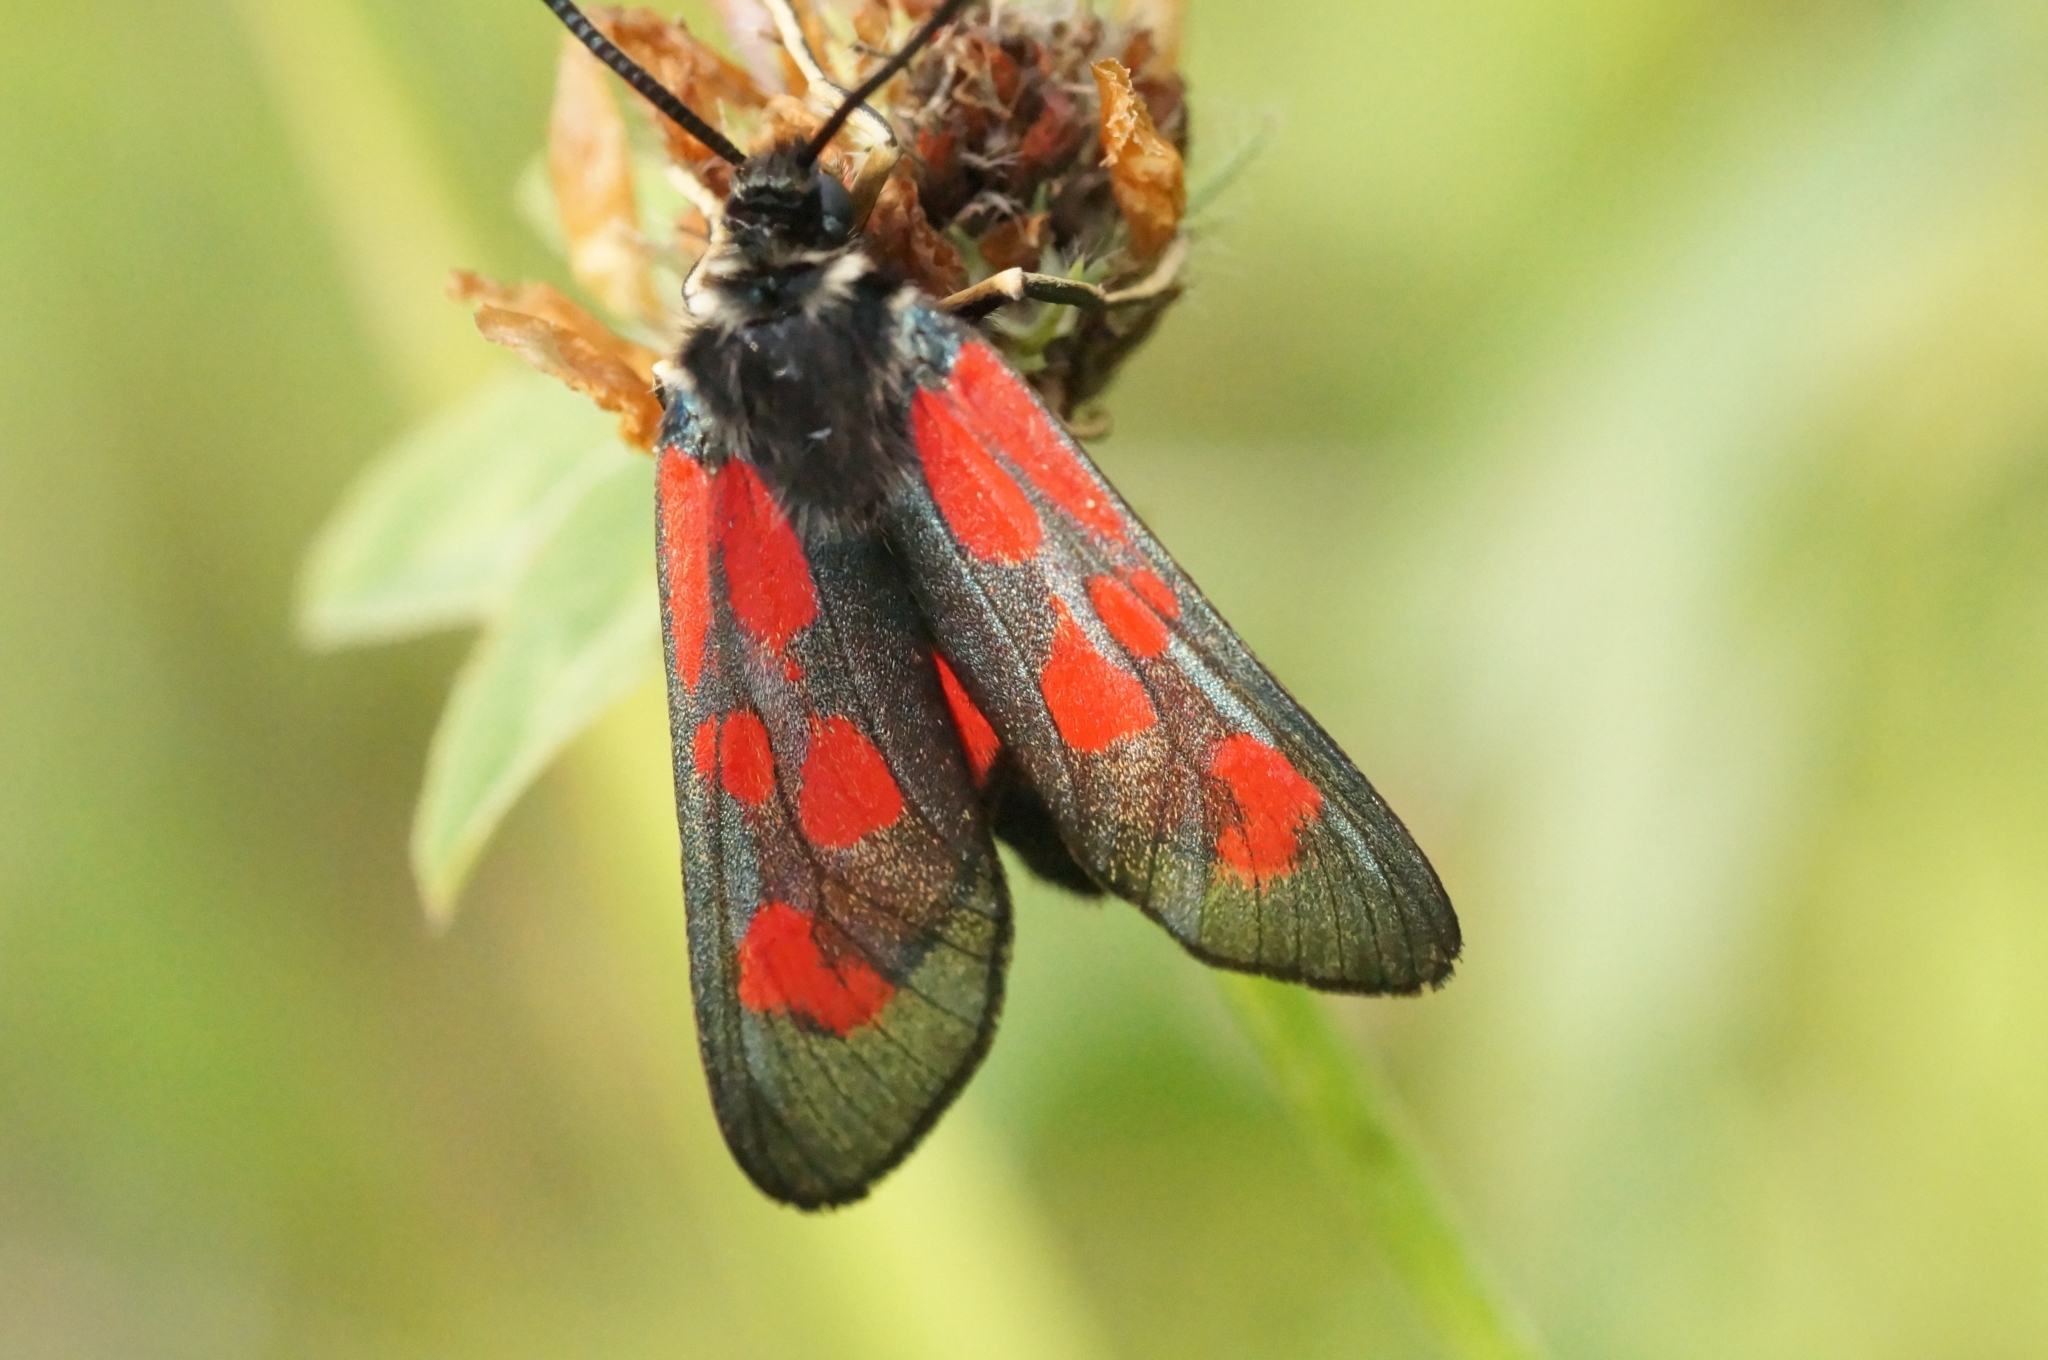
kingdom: Animalia
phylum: Arthropoda
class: Insecta
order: Lepidoptera
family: Zygaenidae
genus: Zygaena
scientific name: Zygaena loti
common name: Slender scotch burnet
